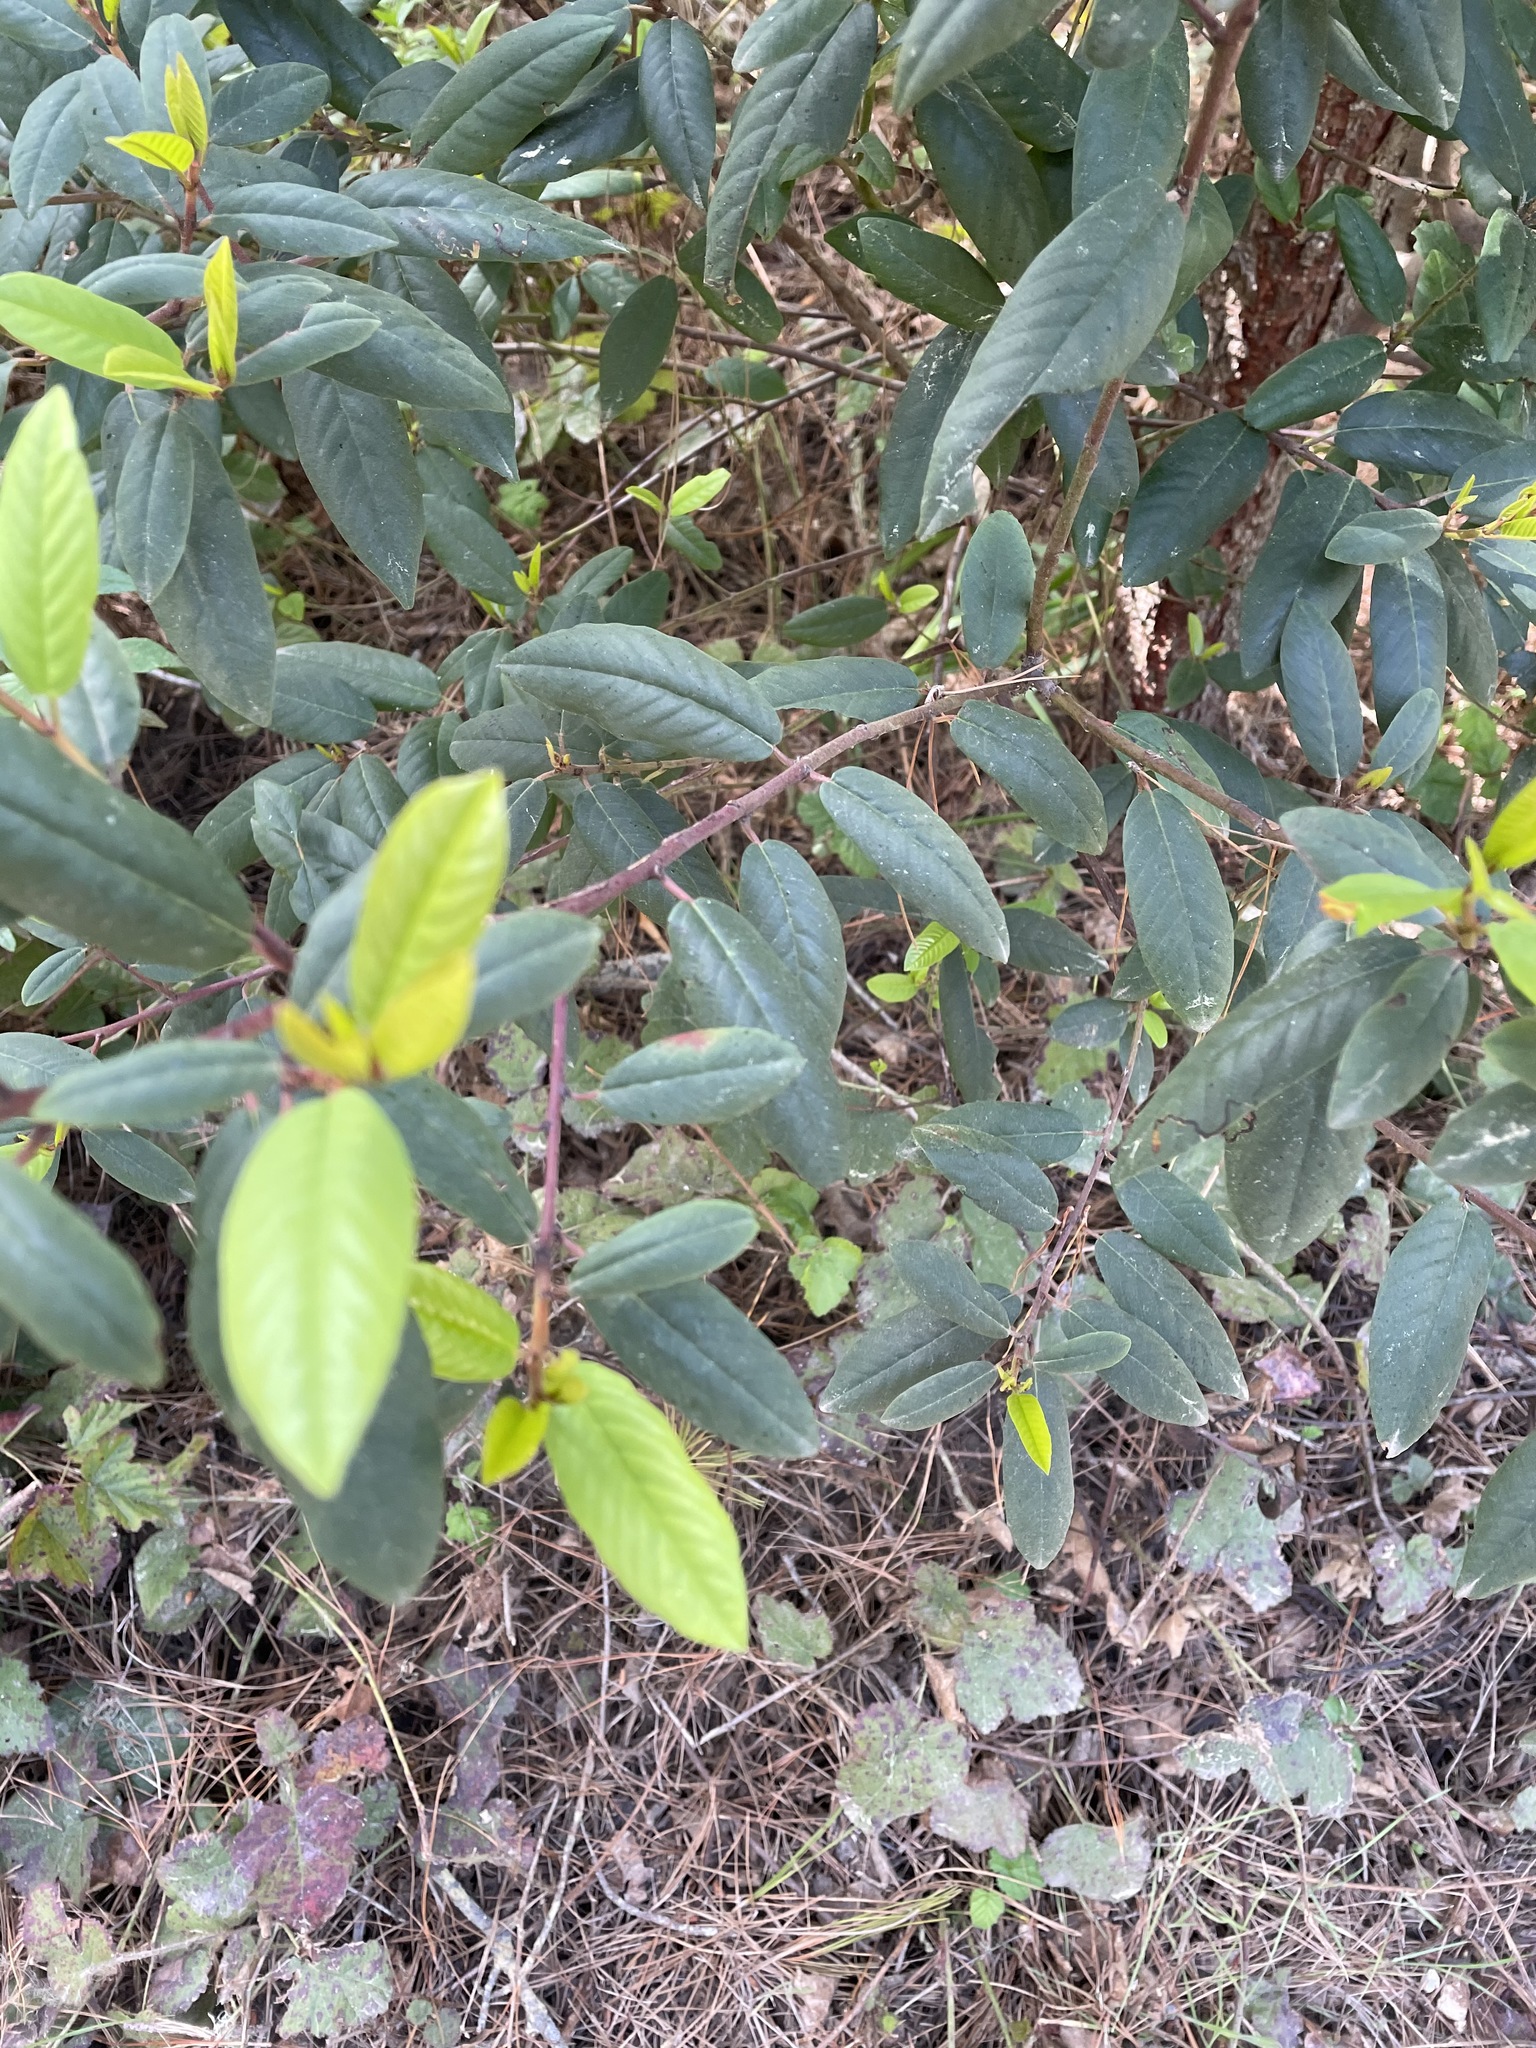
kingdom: Plantae
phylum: Tracheophyta
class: Magnoliopsida
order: Rosales
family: Rhamnaceae
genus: Frangula
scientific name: Frangula californica
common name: California buckthorn
